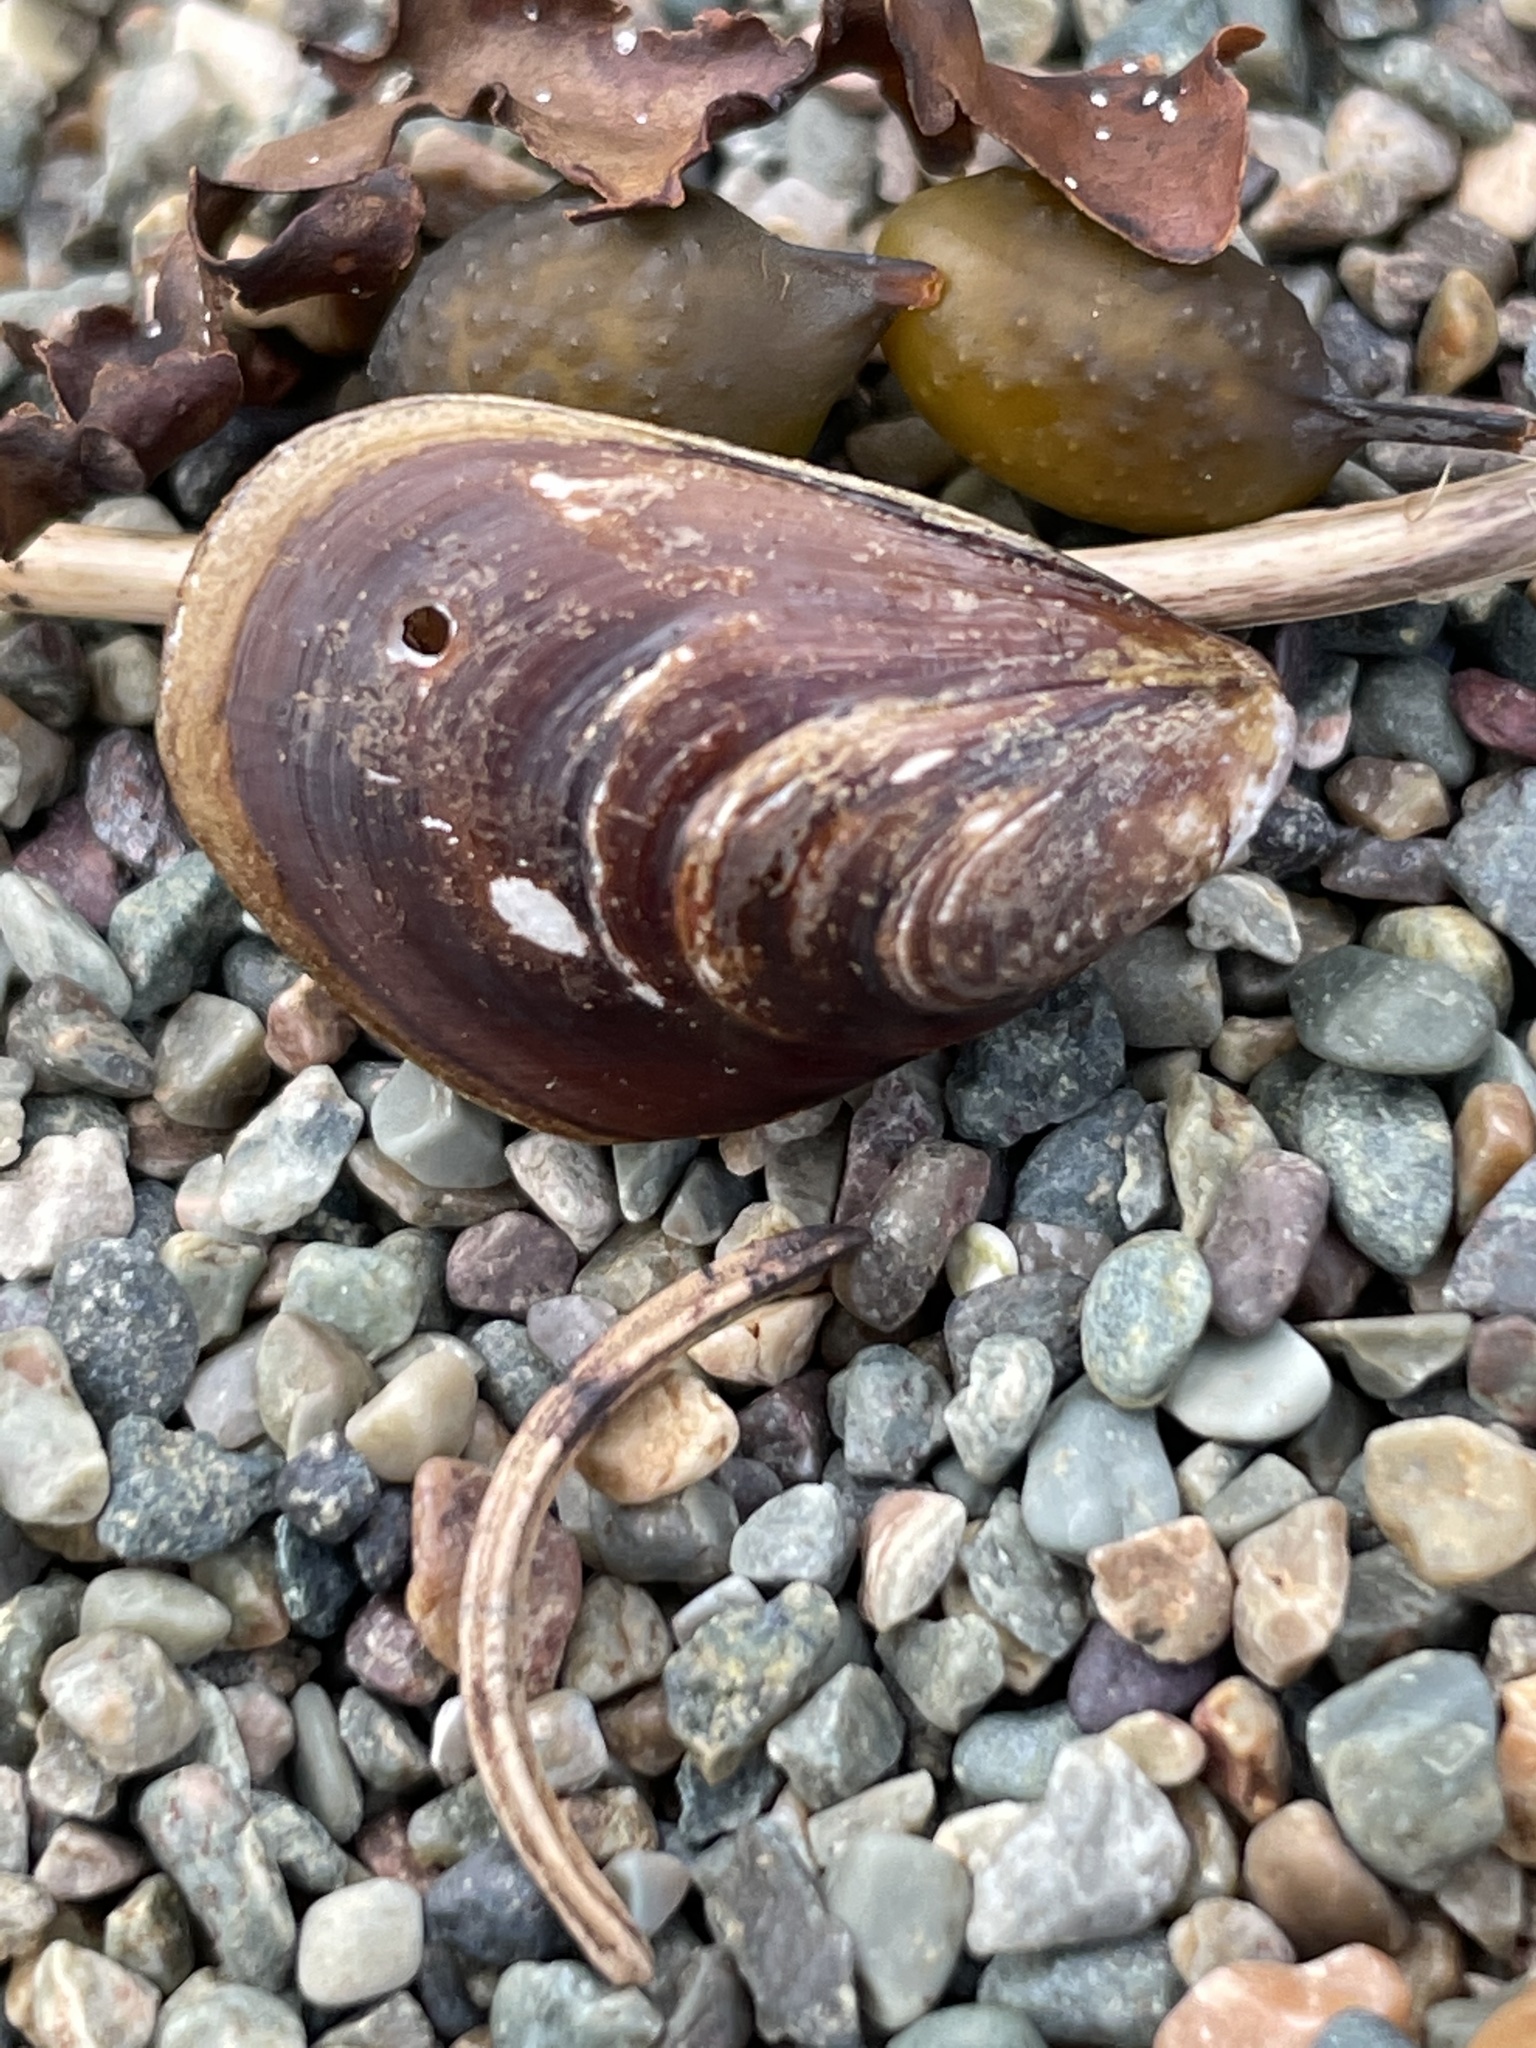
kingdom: Animalia
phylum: Mollusca
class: Bivalvia
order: Mytilida
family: Mytilidae
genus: Modiolus
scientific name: Modiolus modiolus
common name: Horse-mussel
